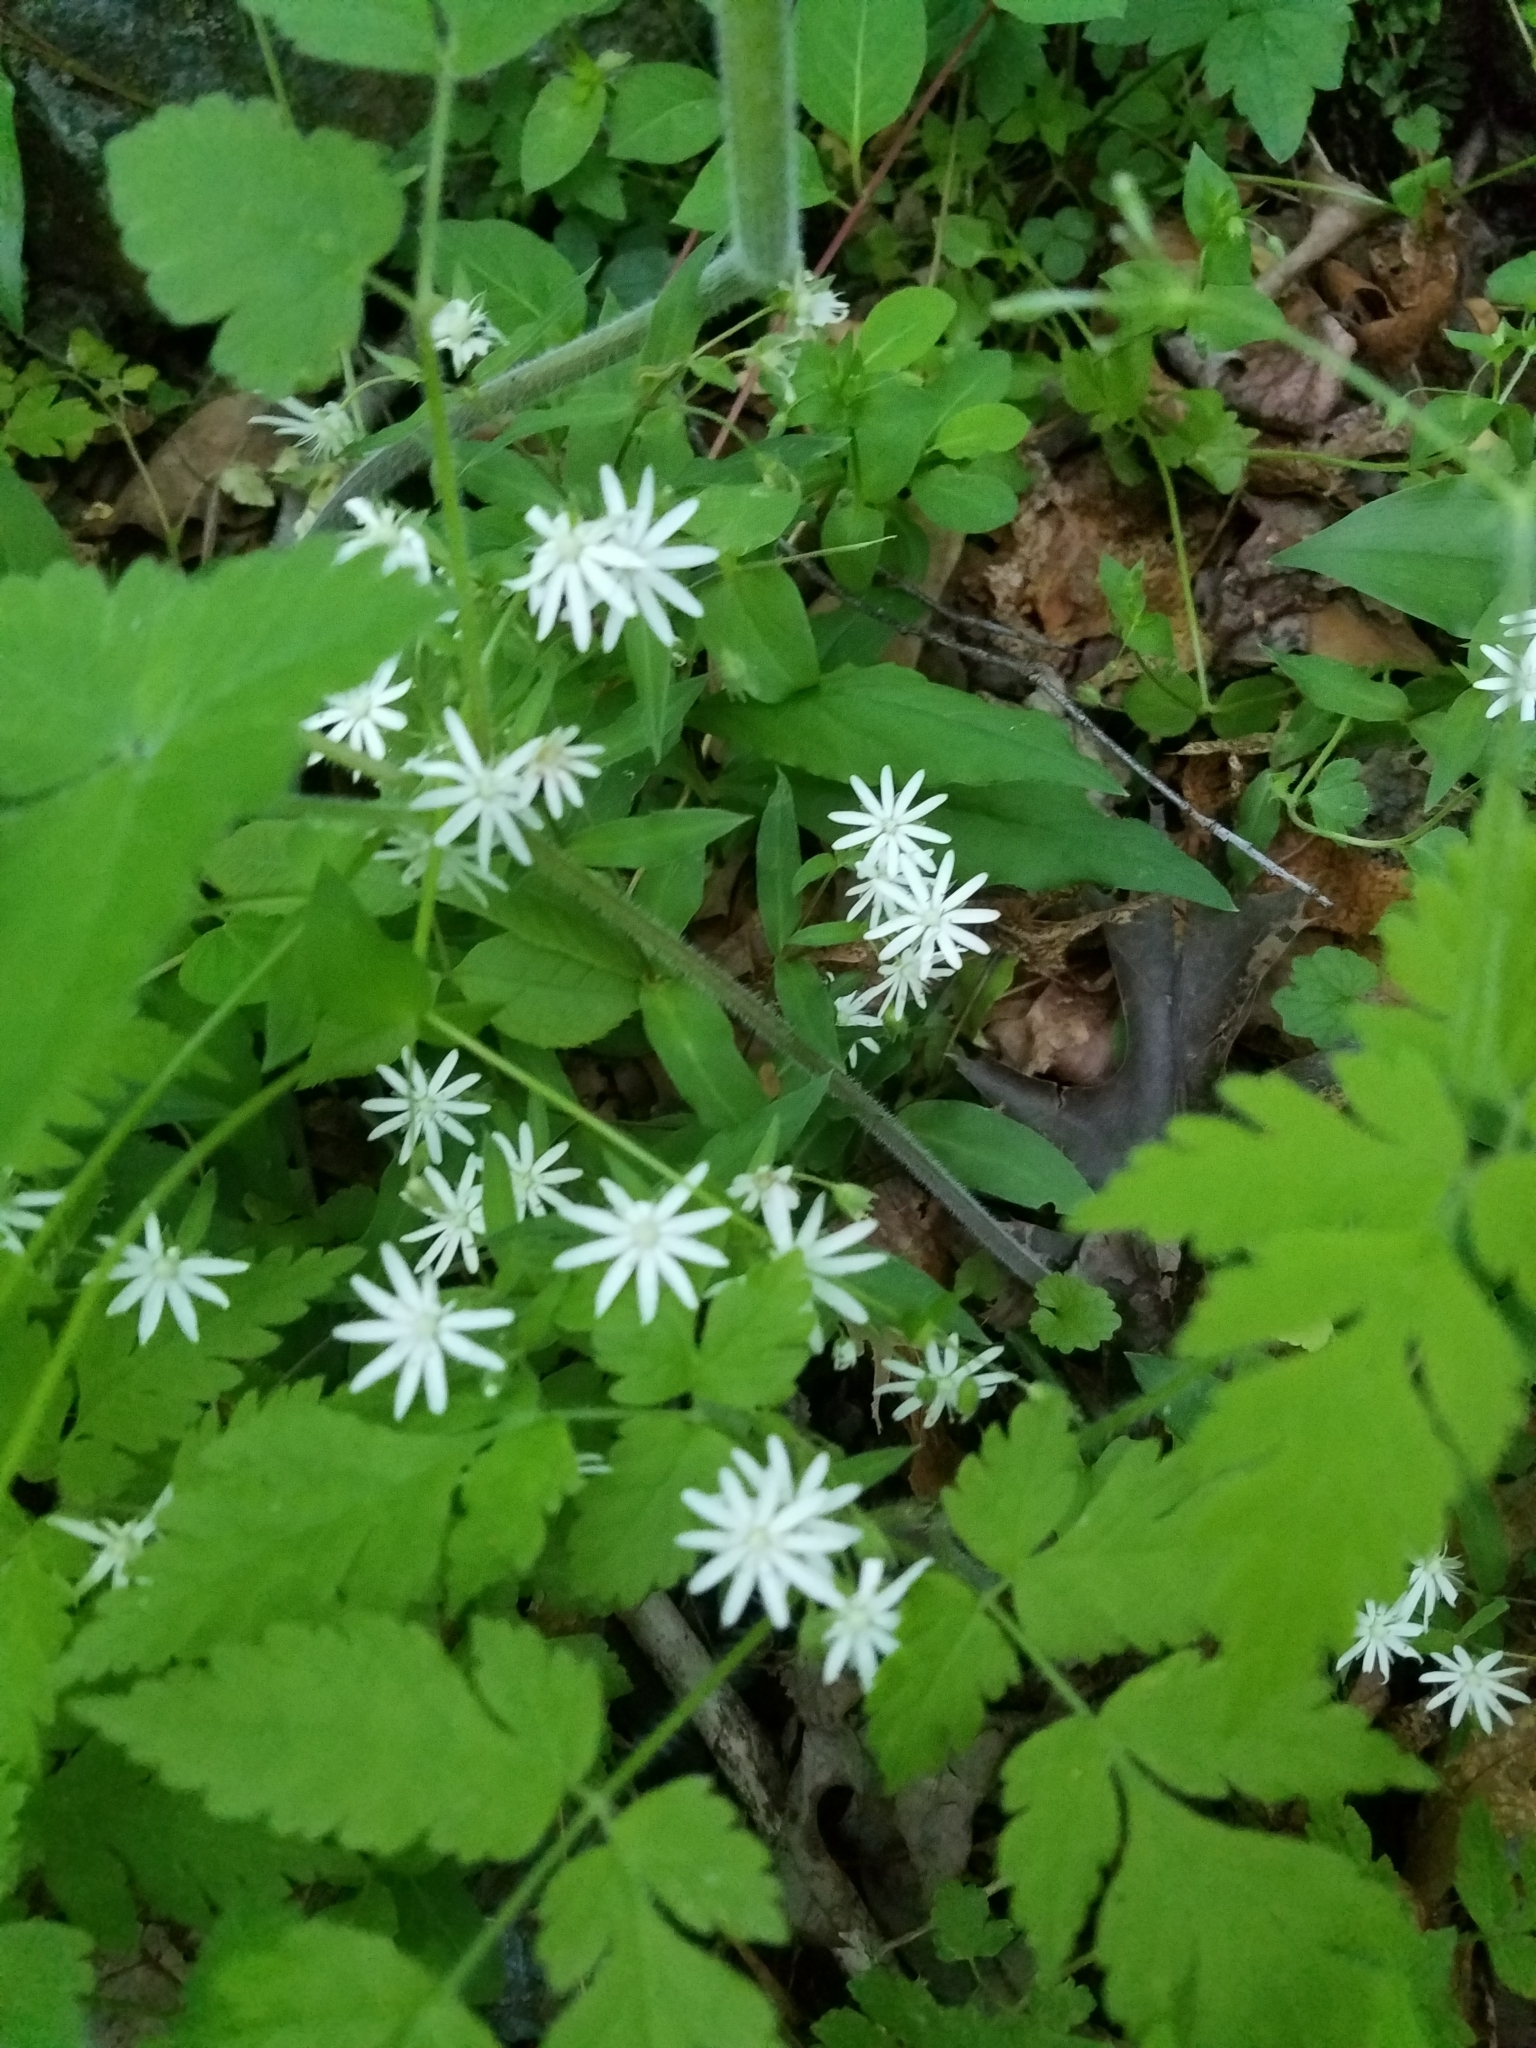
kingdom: Plantae
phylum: Tracheophyta
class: Magnoliopsida
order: Caryophyllales
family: Caryophyllaceae
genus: Stellaria
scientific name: Stellaria pubera
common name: Star chickweed
